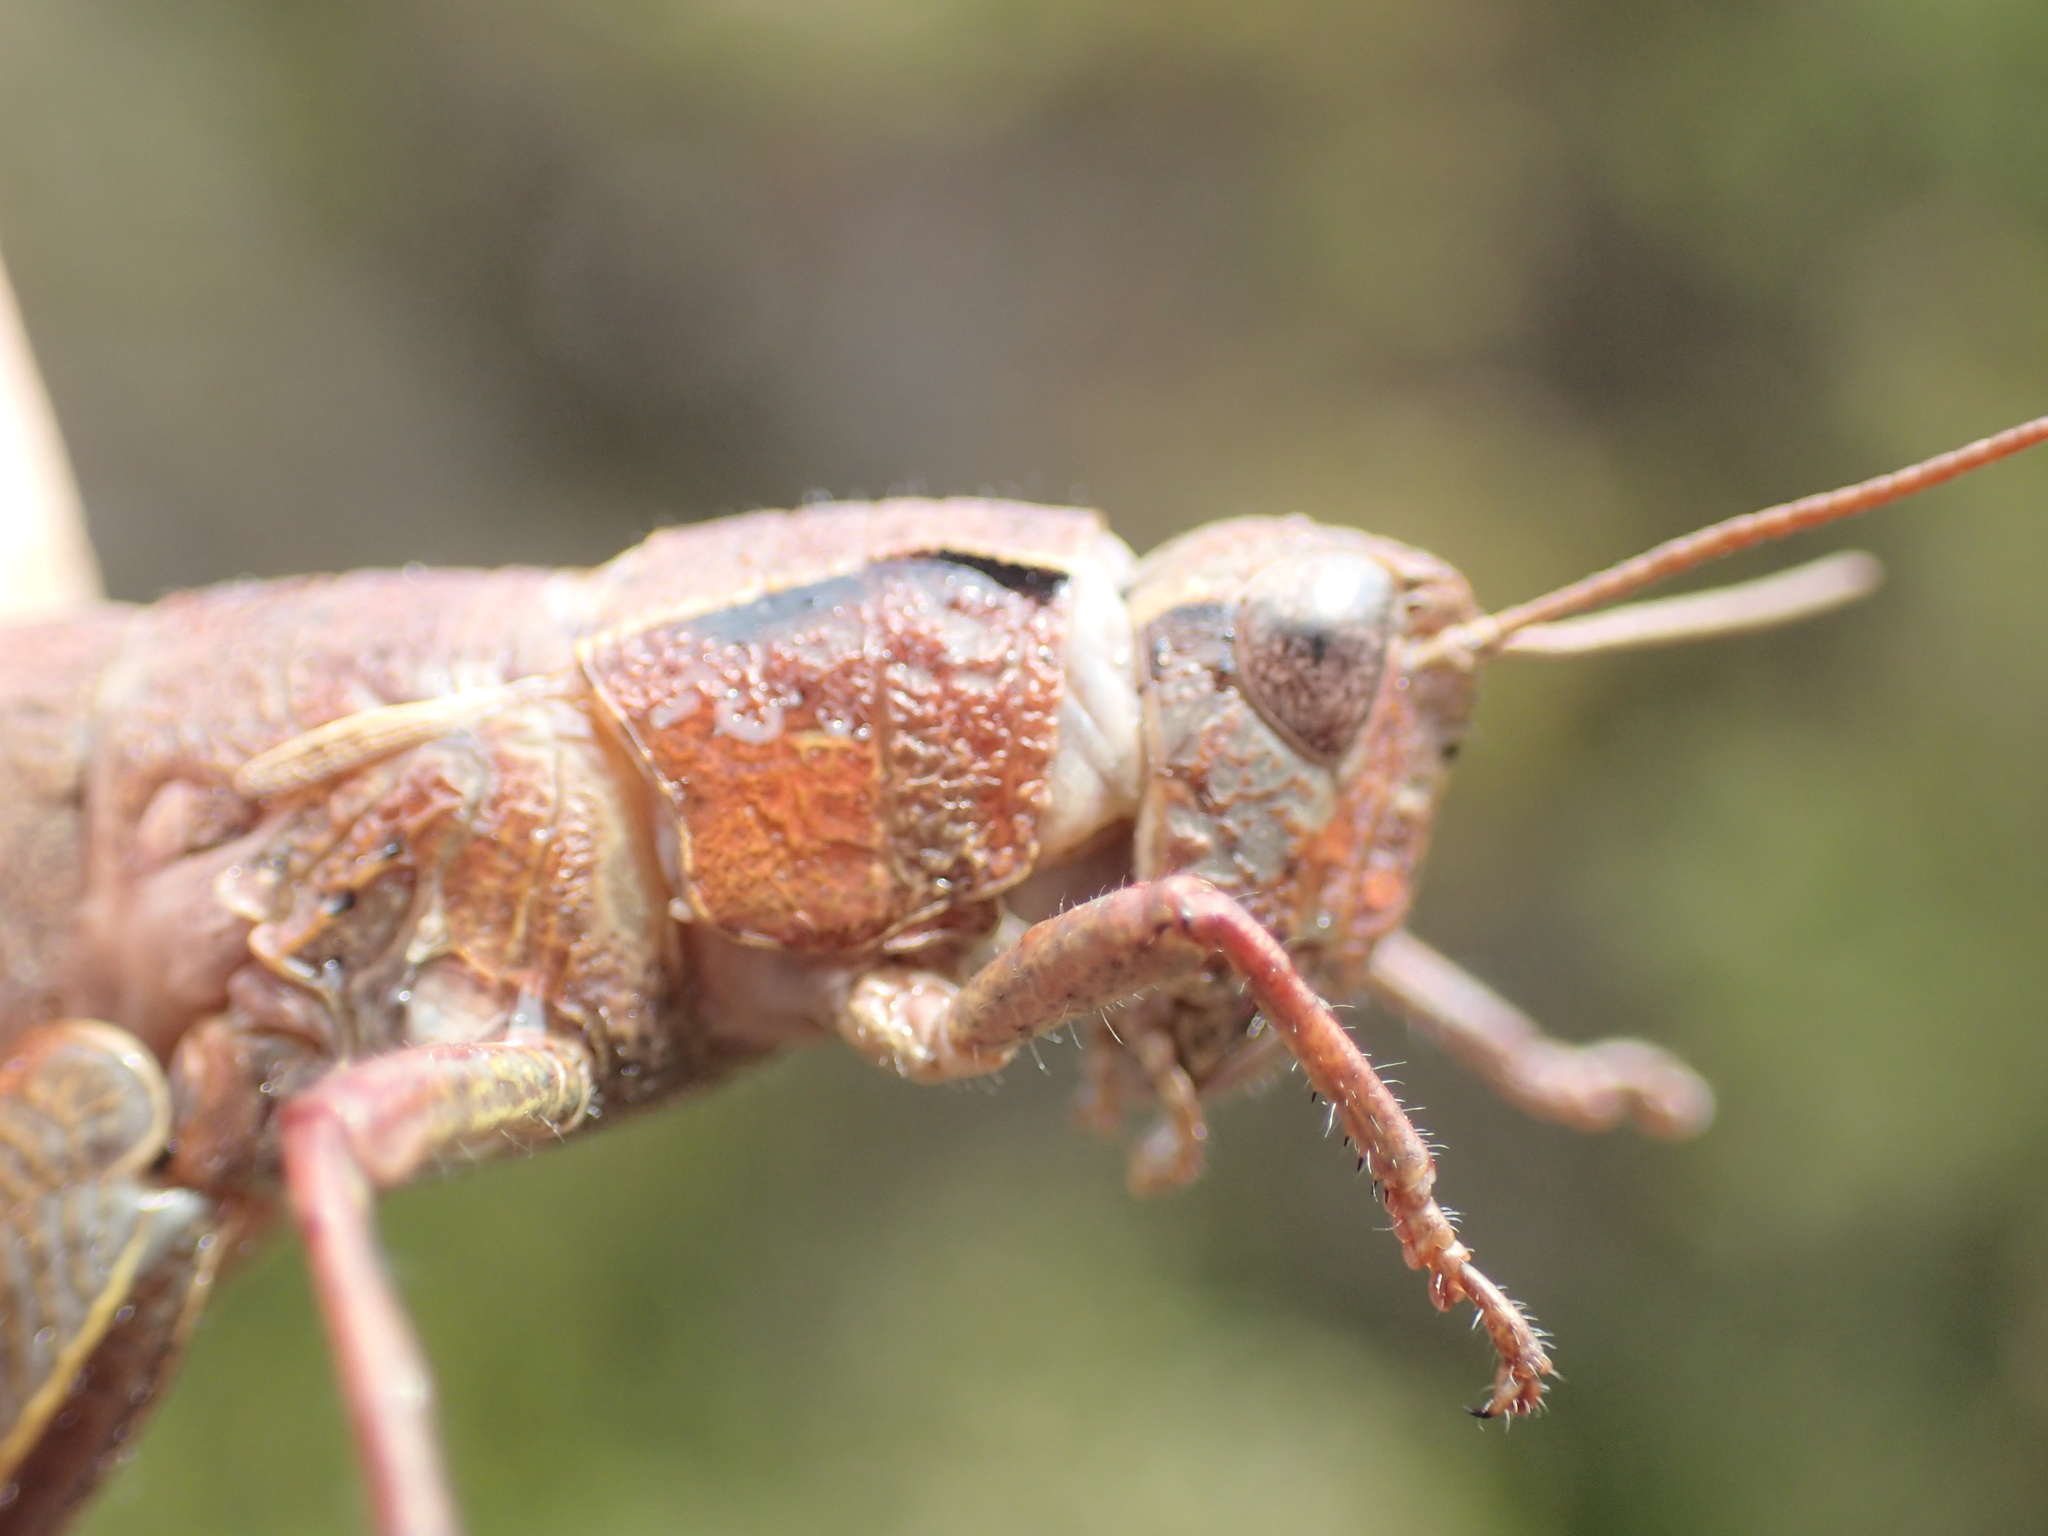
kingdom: Animalia
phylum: Arthropoda
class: Insecta
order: Orthoptera
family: Acrididae
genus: Tasmaniacris
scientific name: Tasmaniacris tasmaniensis
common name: Tasmanian grasshopper
